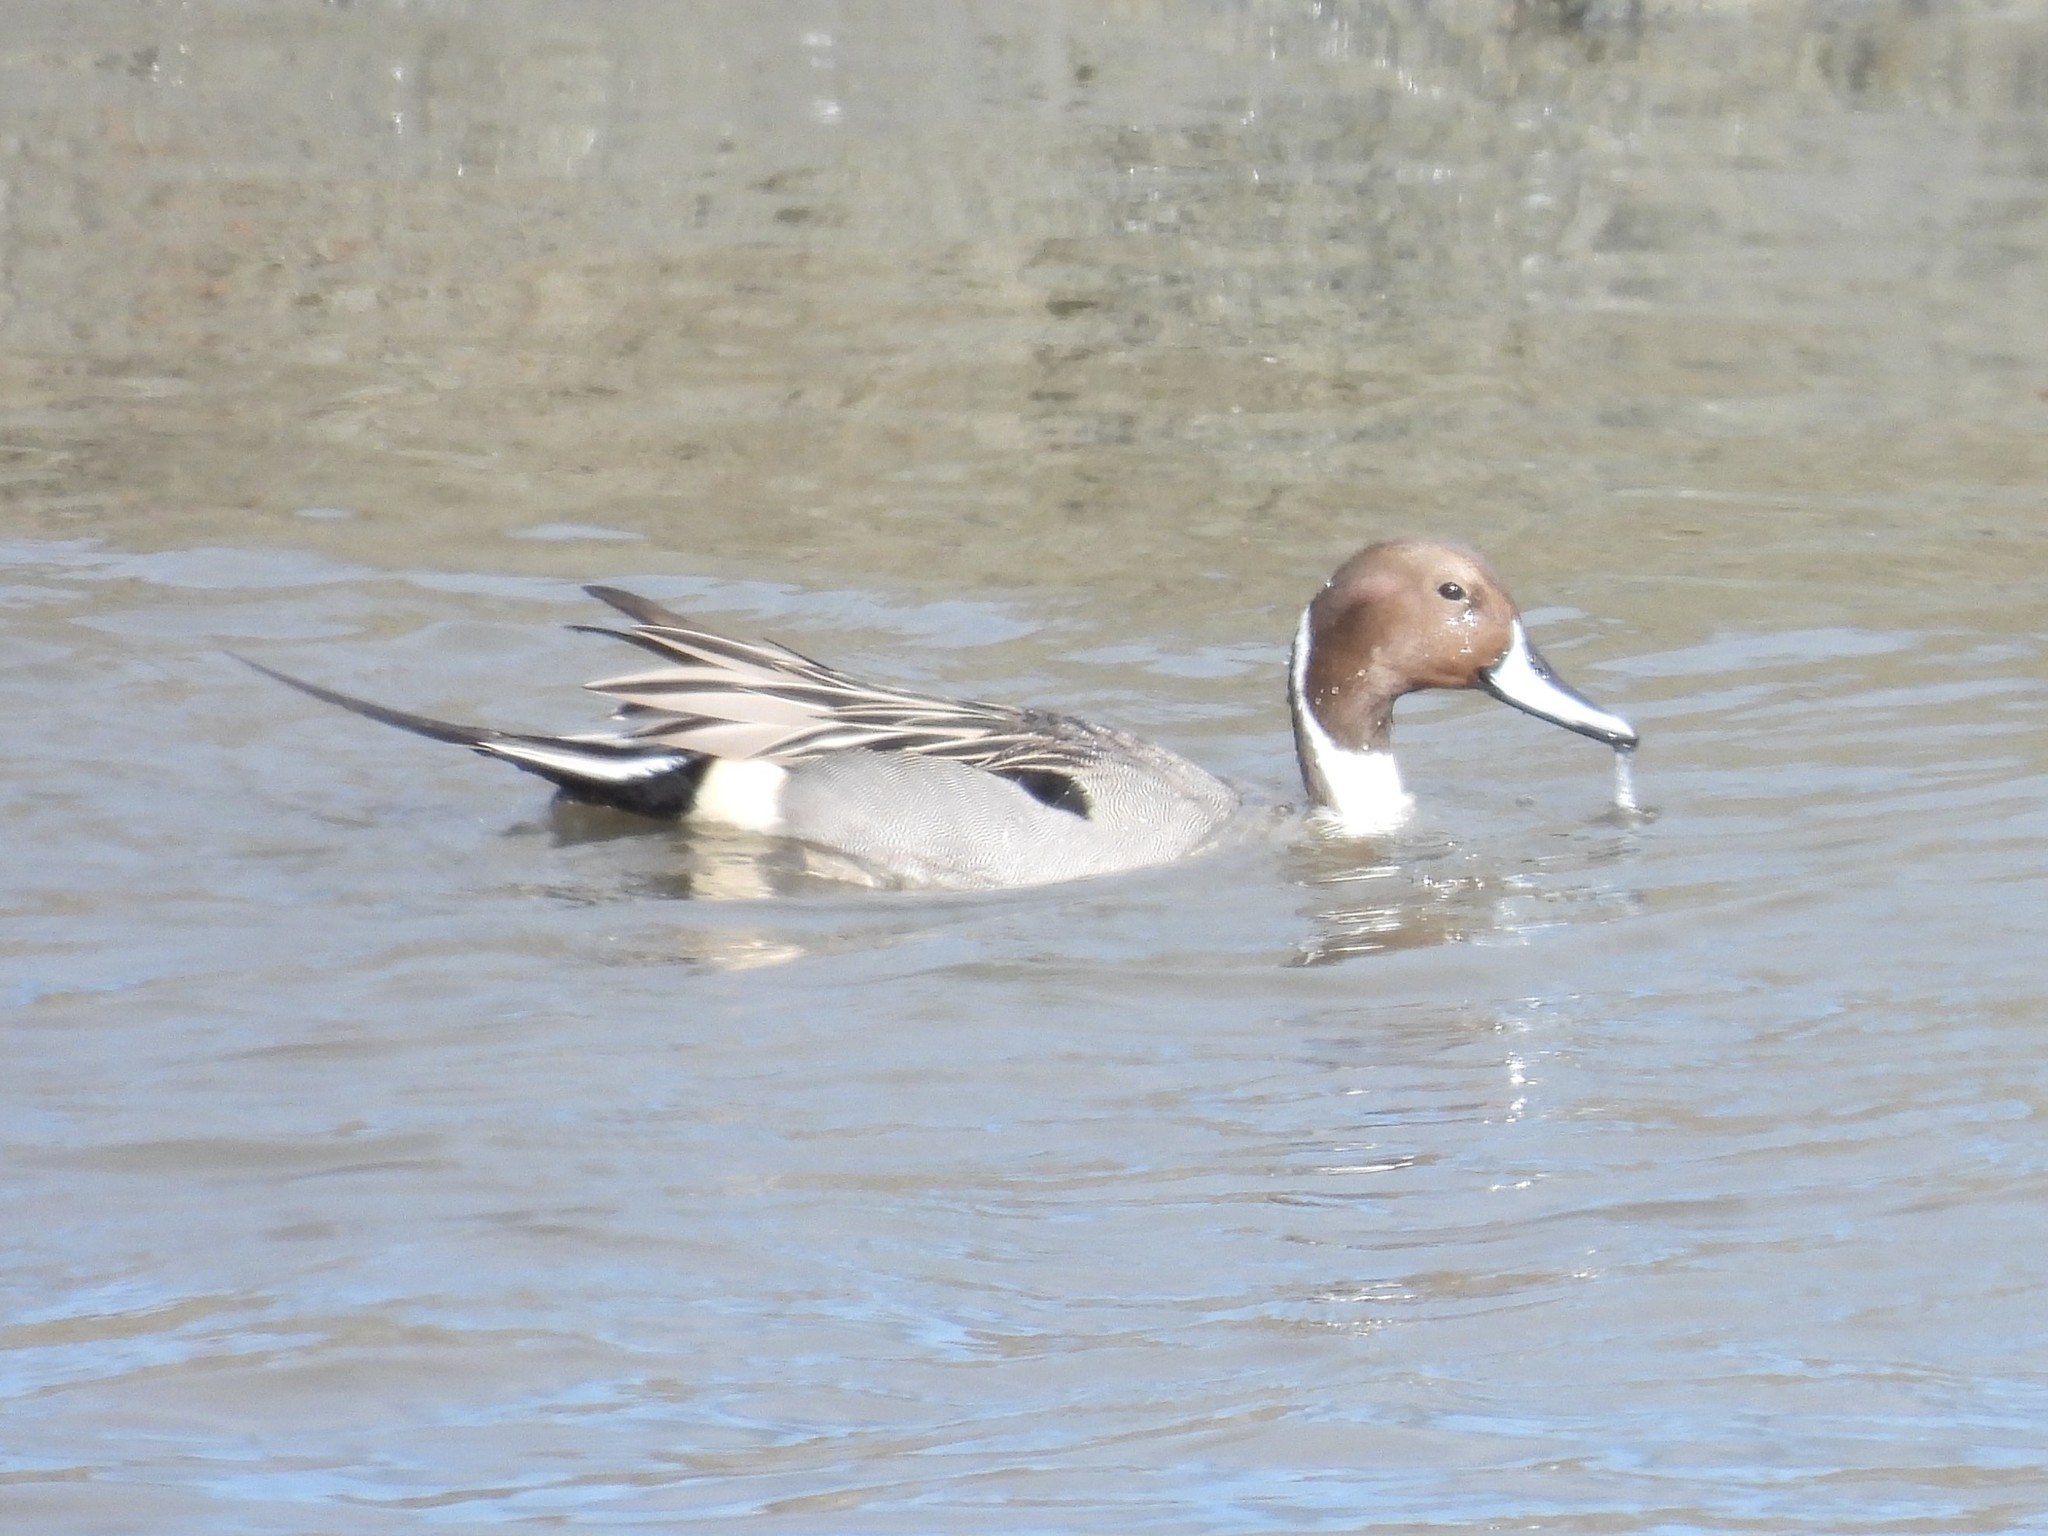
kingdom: Animalia
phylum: Chordata
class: Aves
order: Anseriformes
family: Anatidae
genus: Anas
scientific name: Anas acuta
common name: Northern pintail
